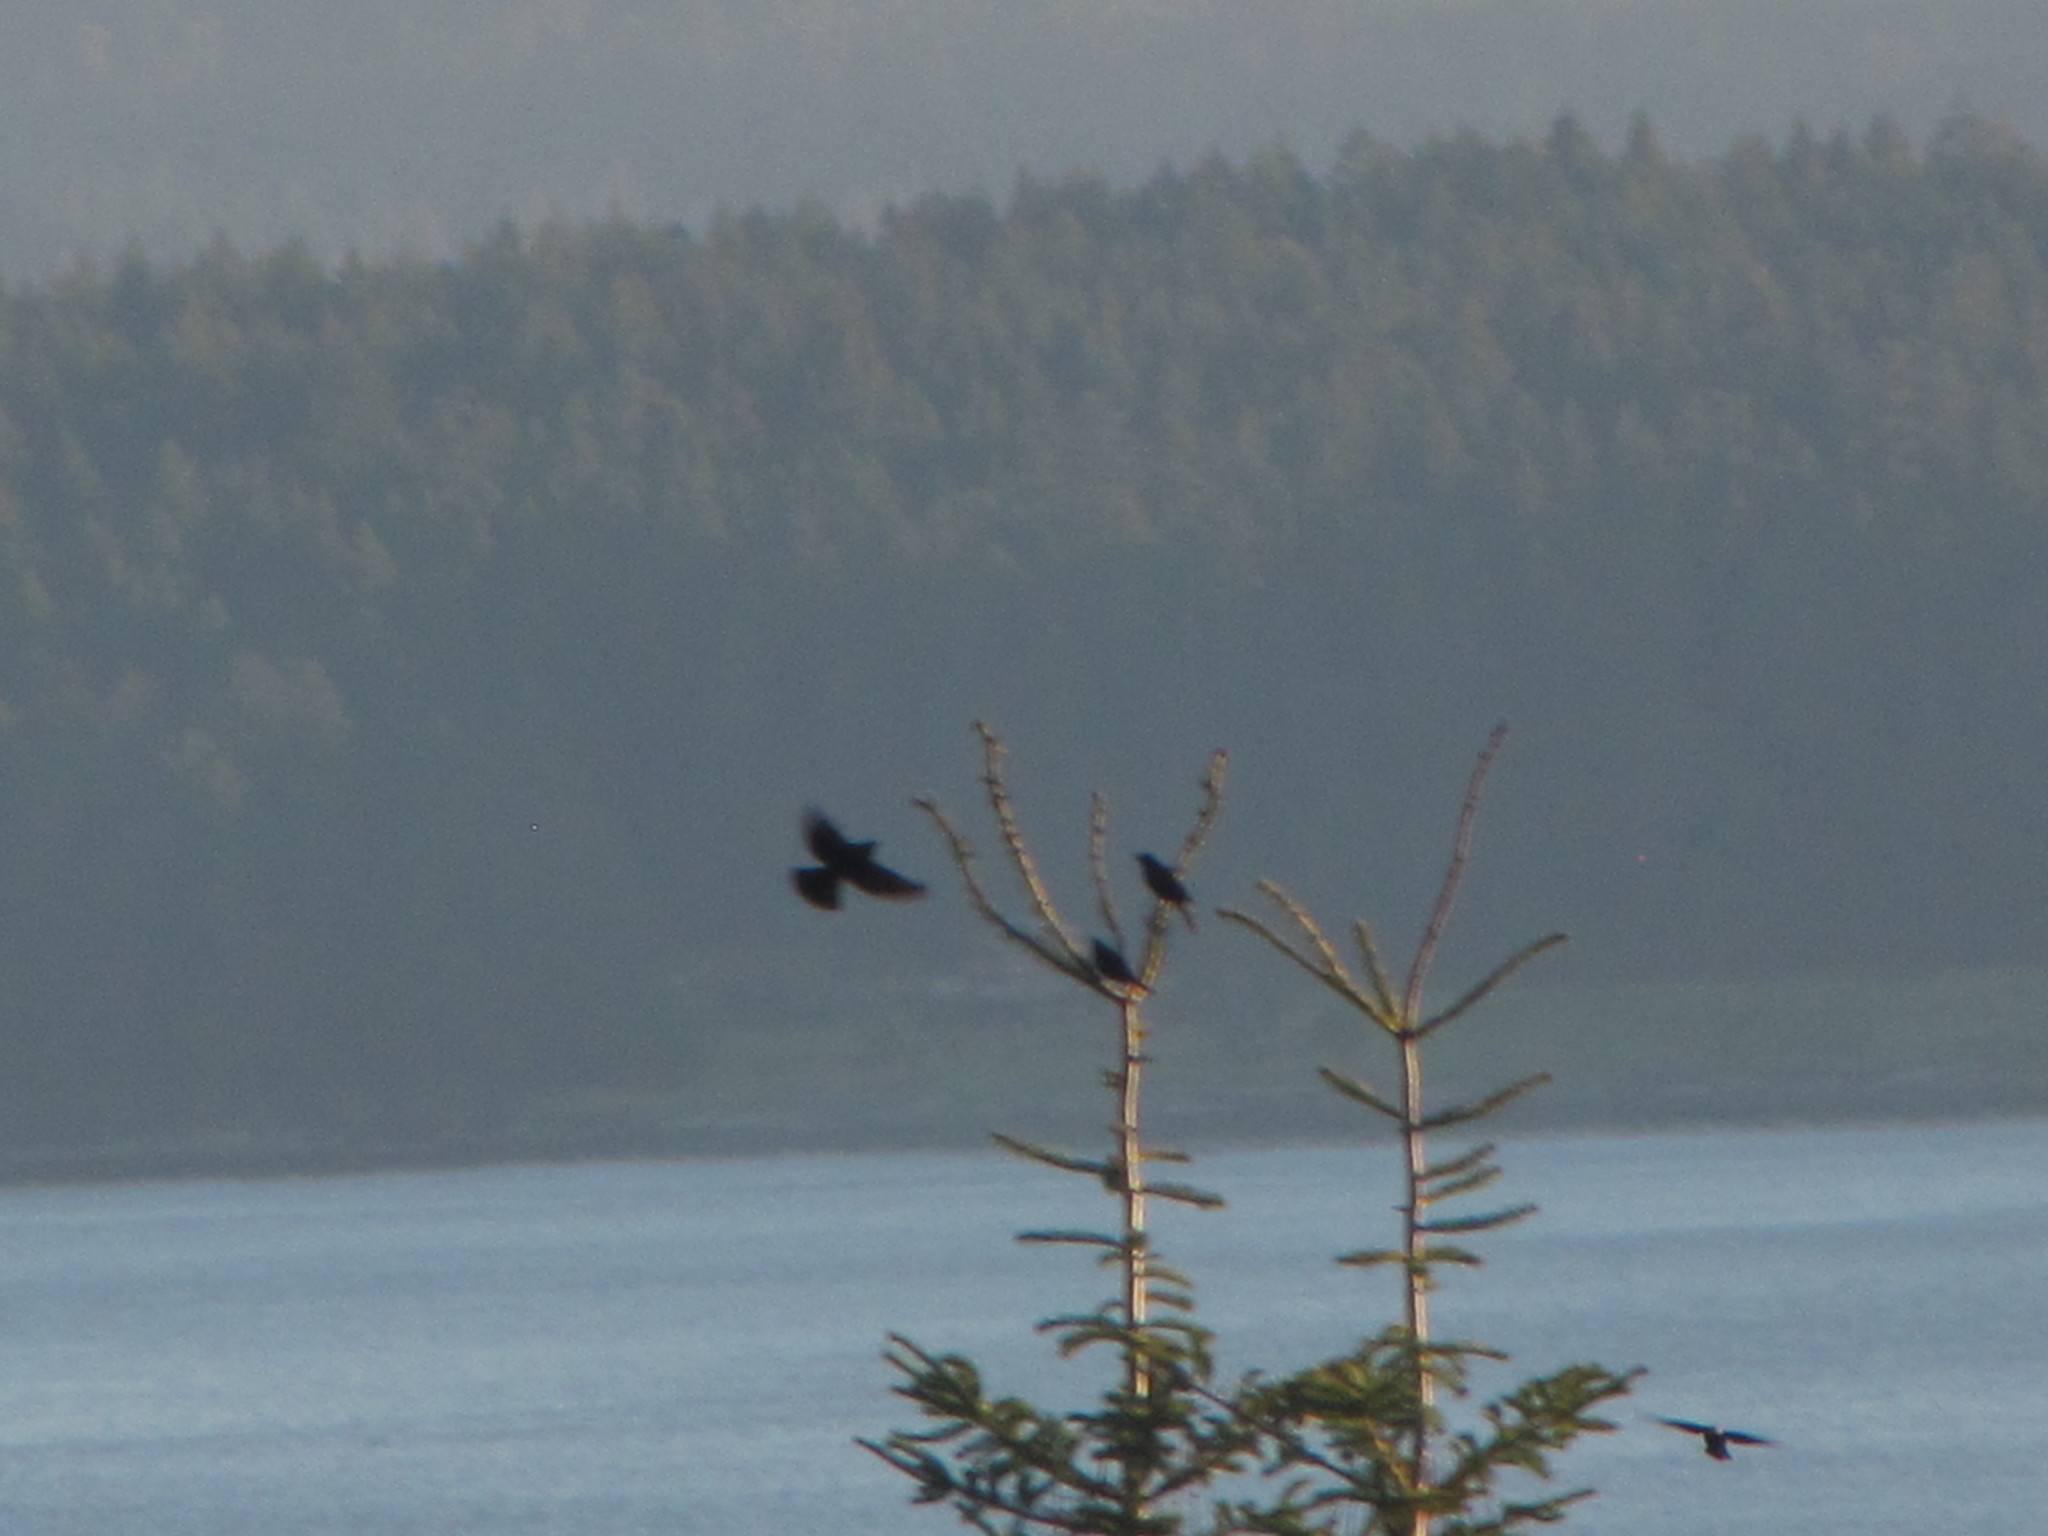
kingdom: Animalia
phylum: Chordata
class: Aves
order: Passeriformes
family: Corvidae
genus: Corvus
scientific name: Corvus brachyrhynchos
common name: American crow
